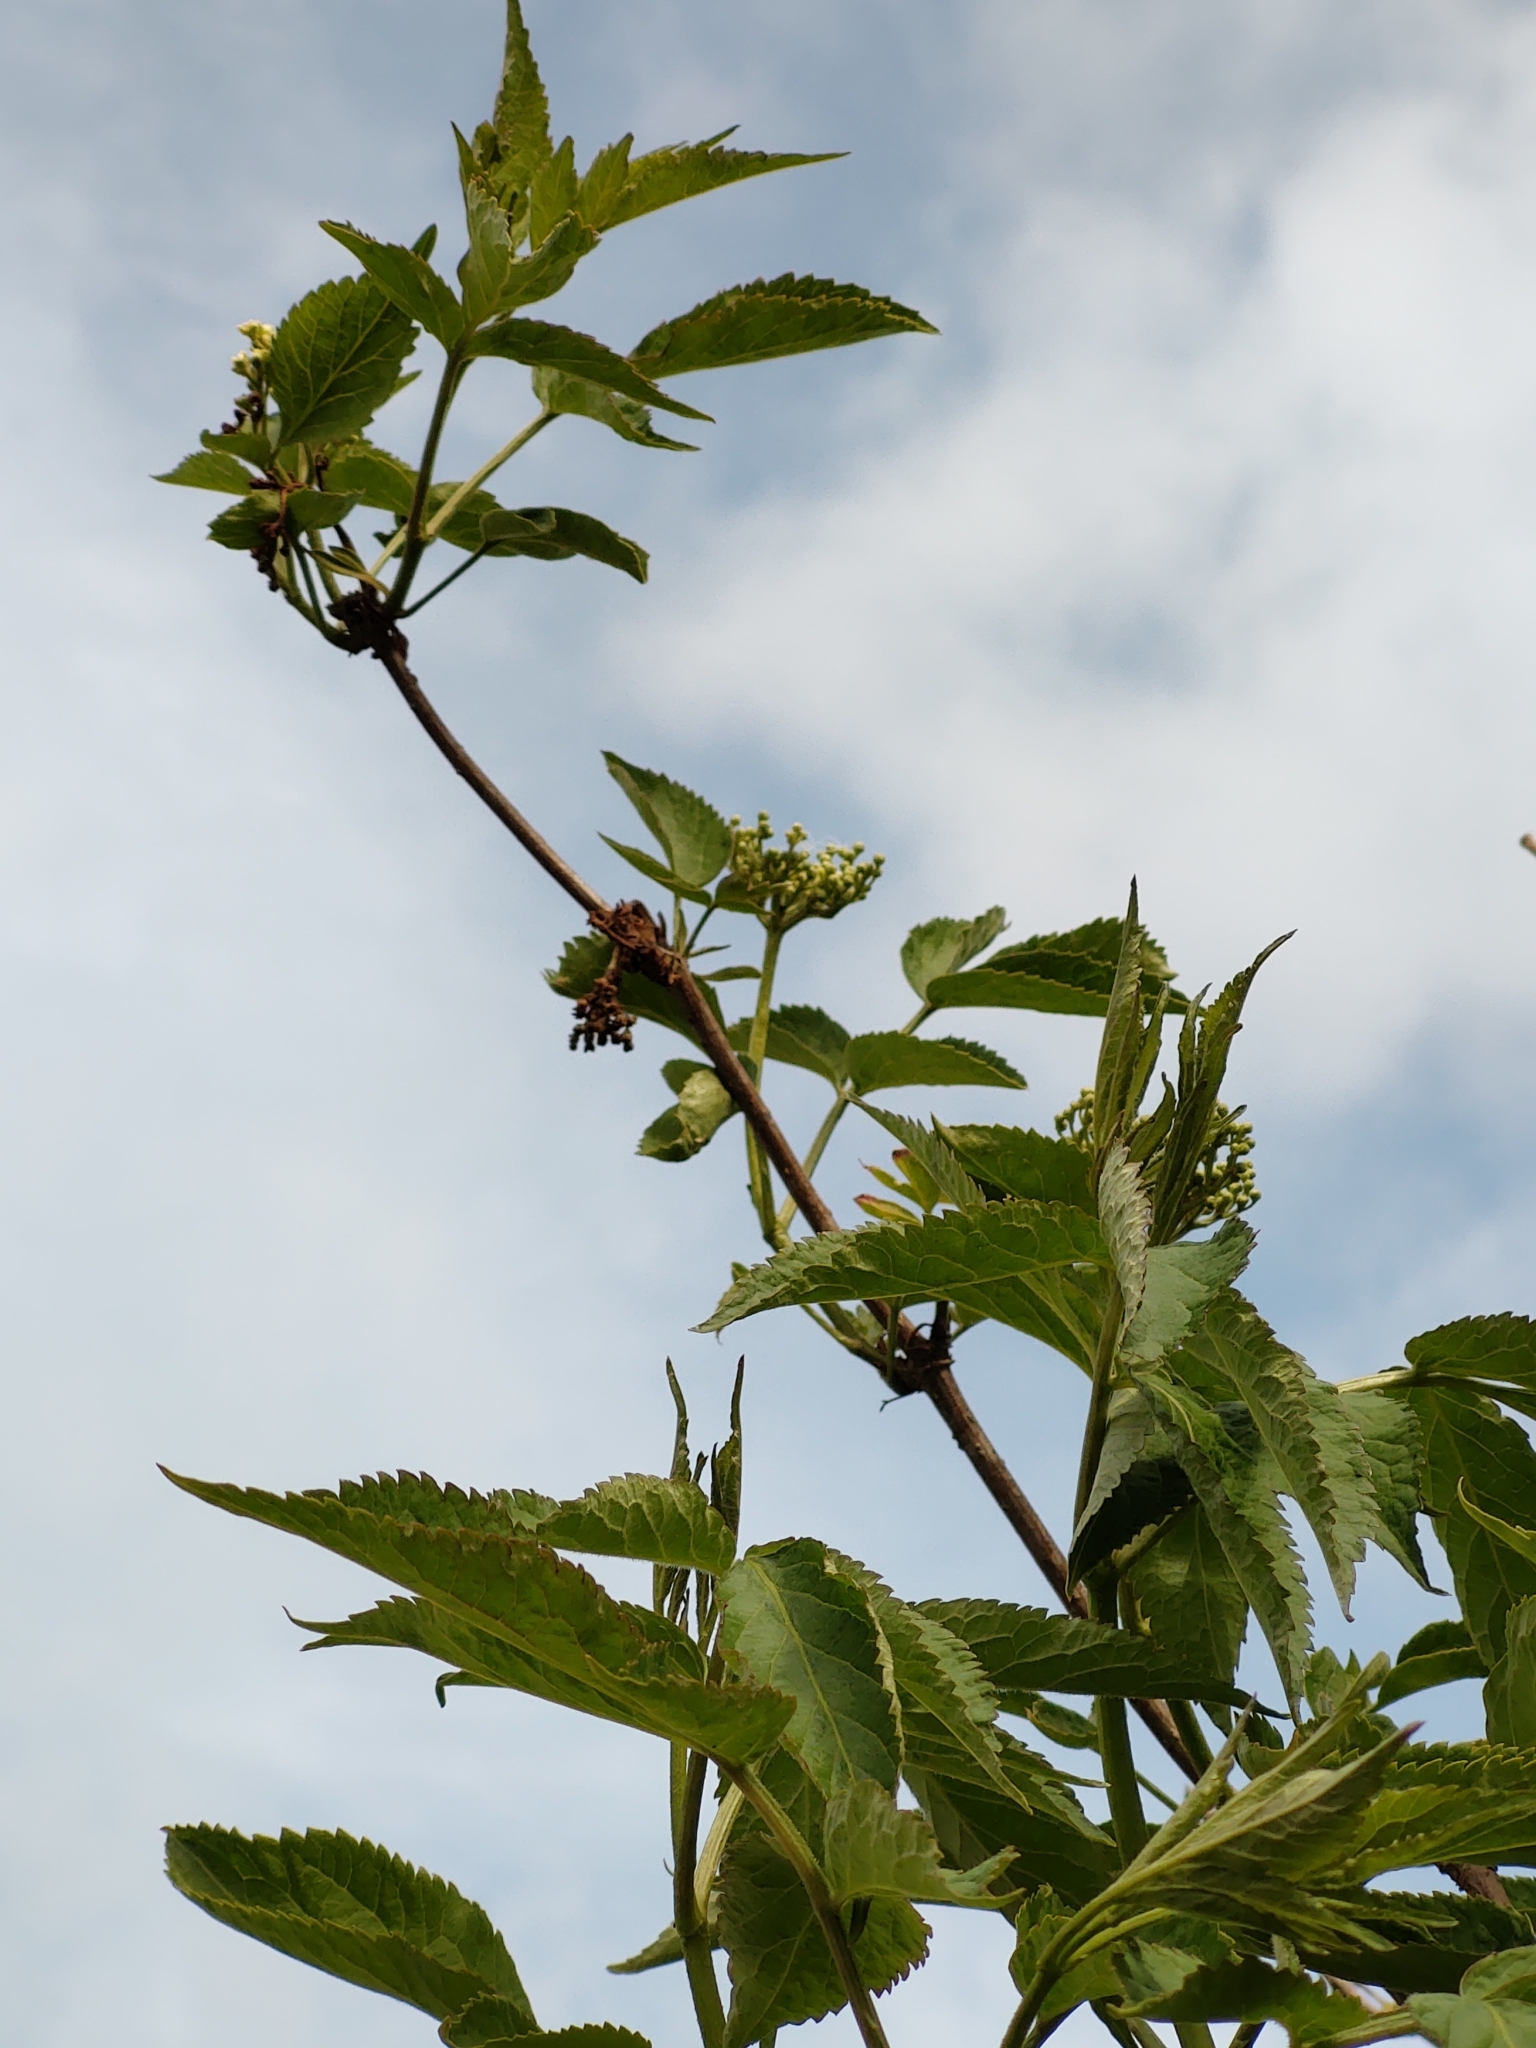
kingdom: Plantae
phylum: Tracheophyta
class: Magnoliopsida
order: Dipsacales
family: Viburnaceae
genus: Sambucus
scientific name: Sambucus nigra
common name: Elder
